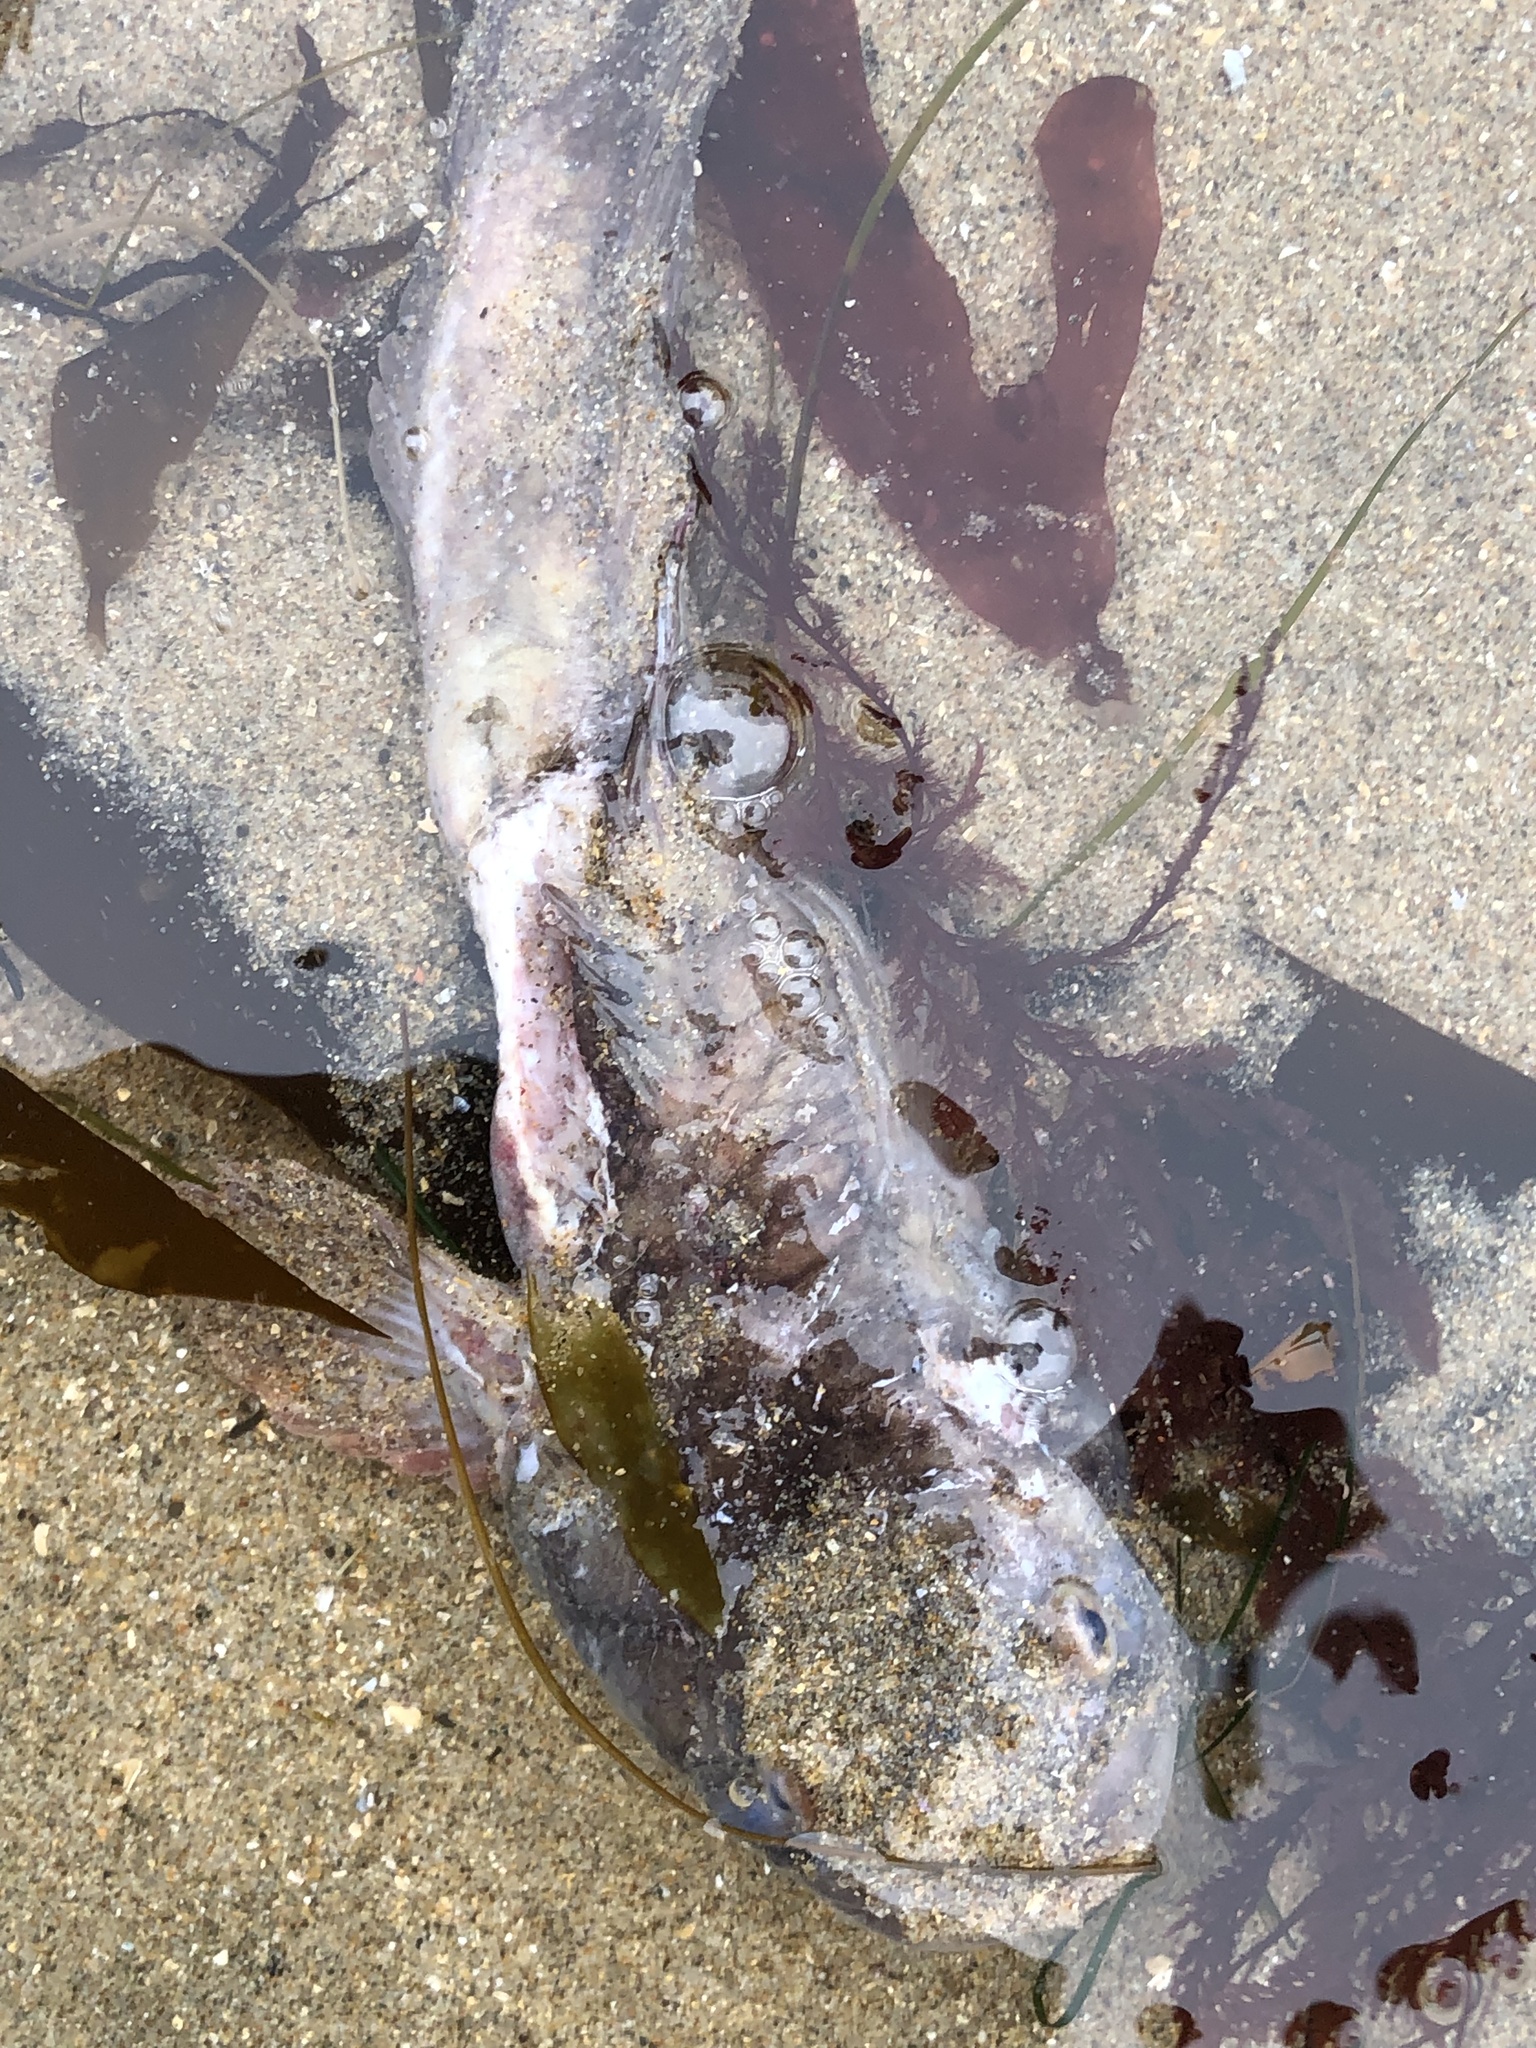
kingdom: Animalia
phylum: Chordata
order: Batrachoidiformes
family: Batrachoididae
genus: Porichthys
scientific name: Porichthys notatus
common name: Plainfin midshipman
